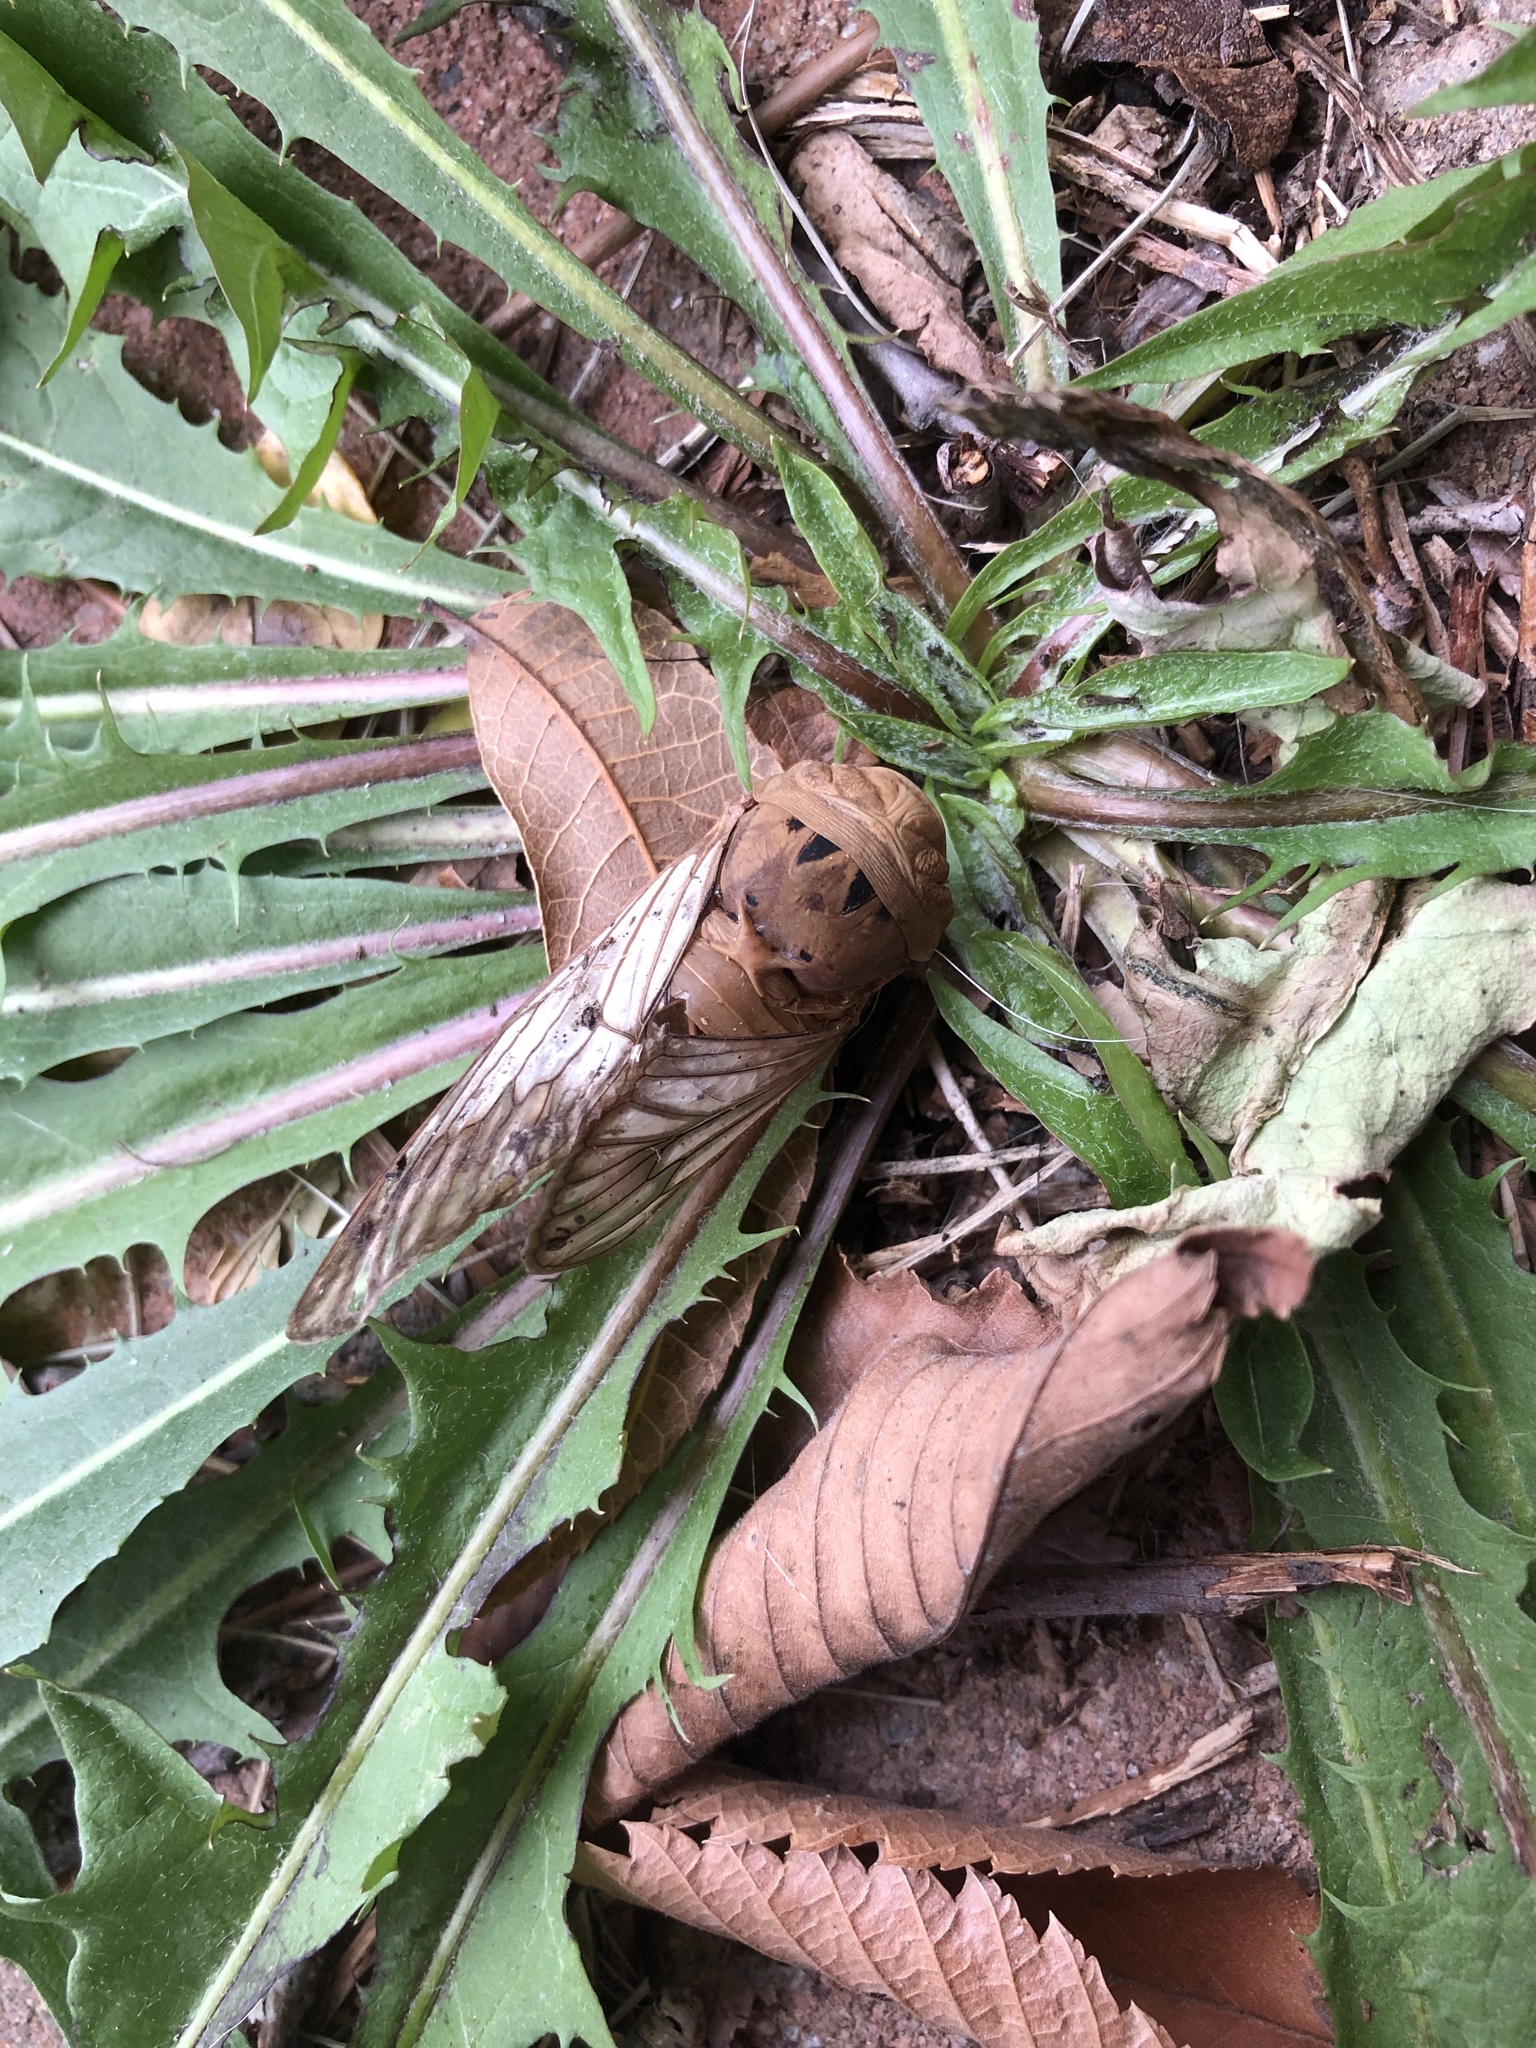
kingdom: Animalia
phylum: Arthropoda
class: Insecta
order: Hemiptera
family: Cicadidae
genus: Neotibicen
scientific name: Neotibicen superbus
